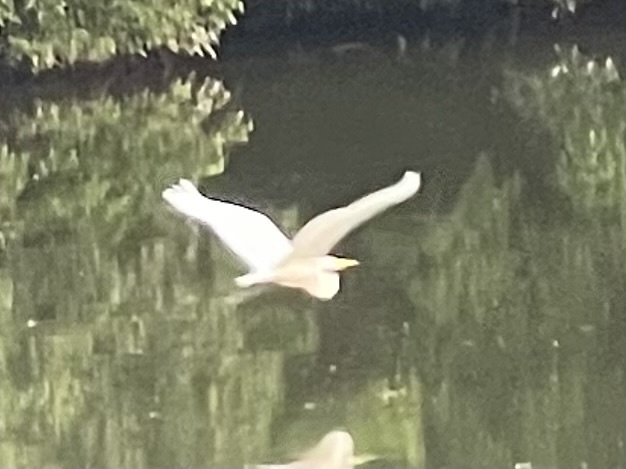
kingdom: Animalia
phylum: Chordata
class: Aves
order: Pelecaniformes
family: Ardeidae
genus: Ardea
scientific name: Ardea alba
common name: Great egret
